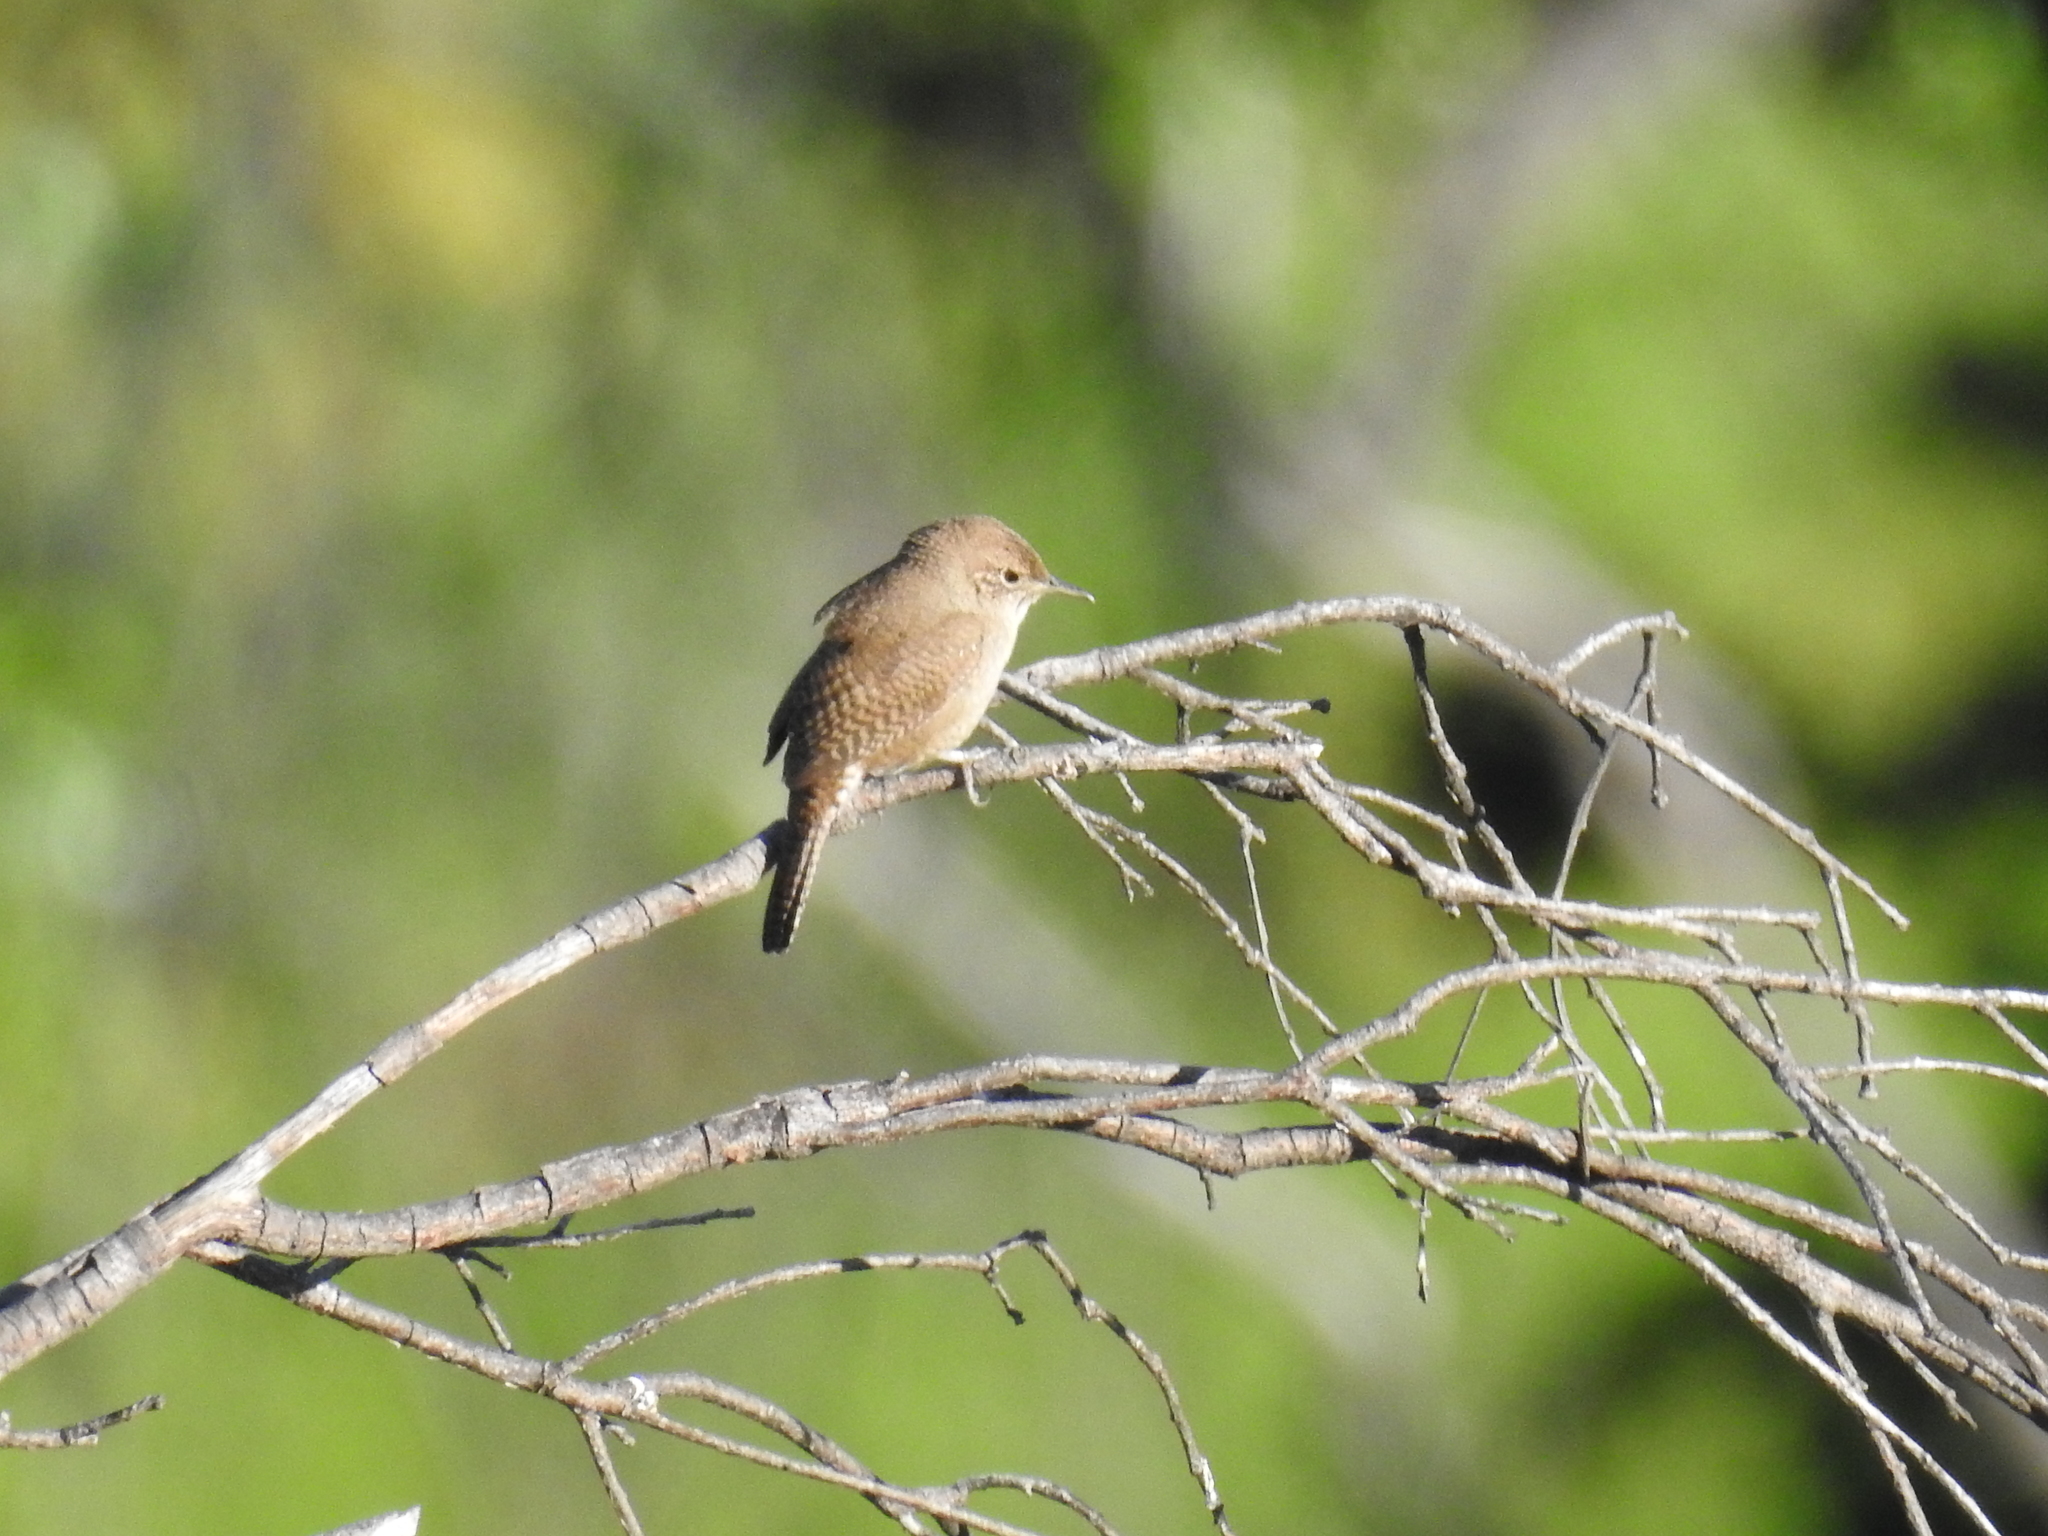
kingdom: Animalia
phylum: Chordata
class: Aves
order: Passeriformes
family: Troglodytidae
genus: Troglodytes
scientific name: Troglodytes aedon
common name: House wren
